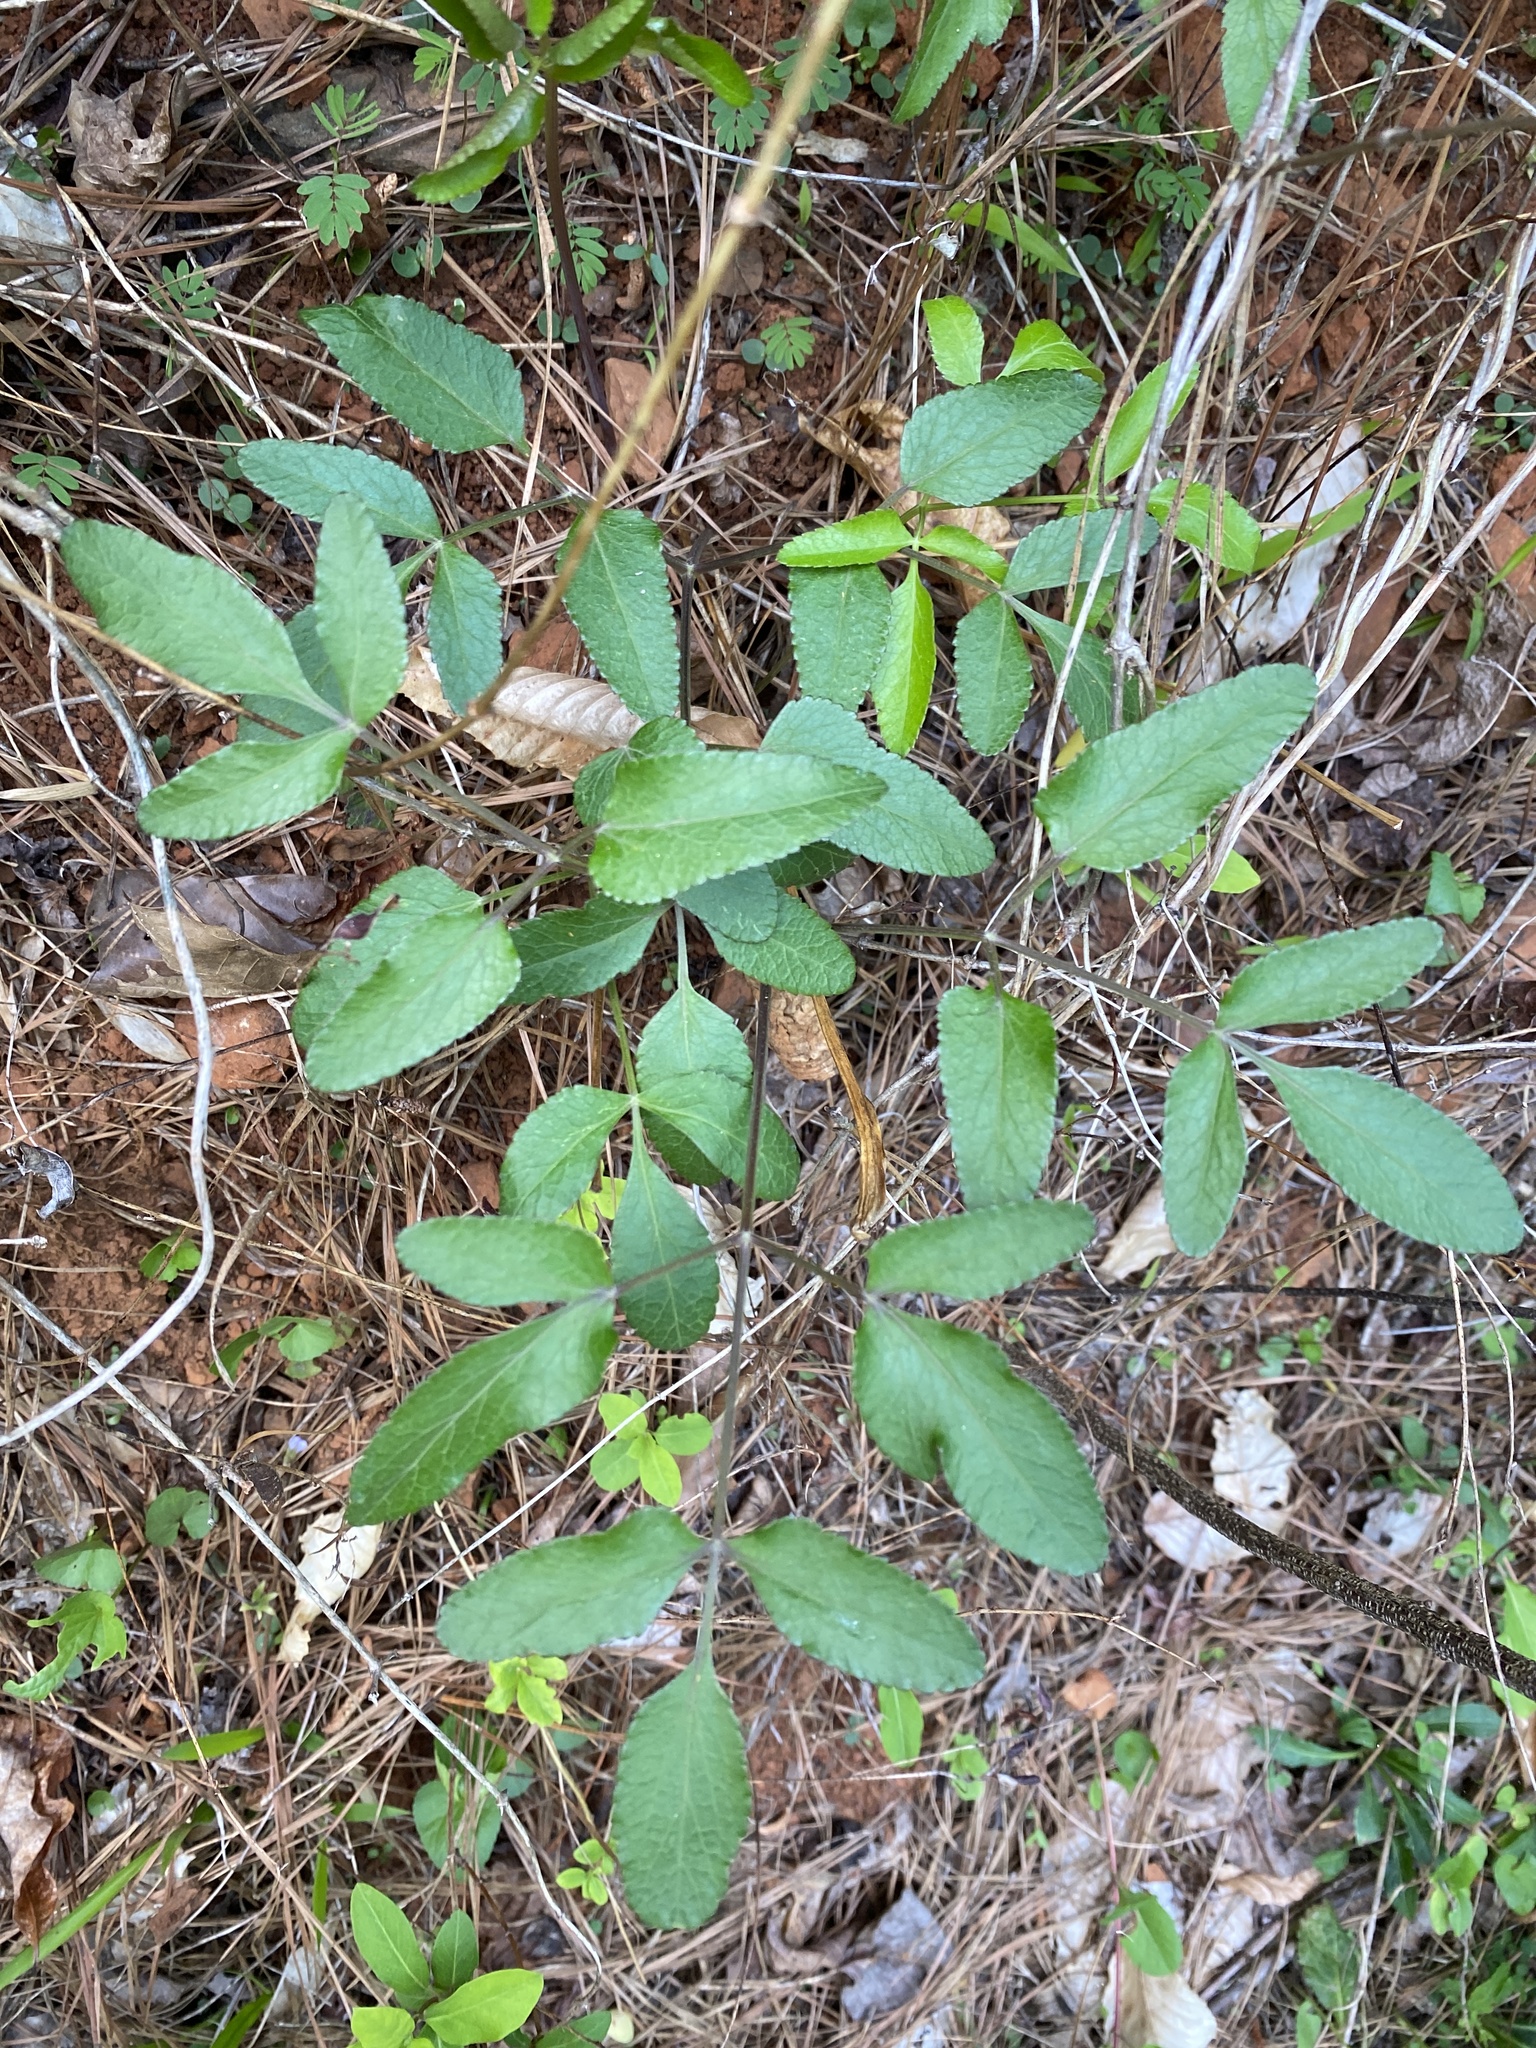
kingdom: Plantae
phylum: Tracheophyta
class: Magnoliopsida
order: Apiales
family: Apiaceae
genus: Angelica
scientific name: Angelica venenosa
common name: Hairy angelica
